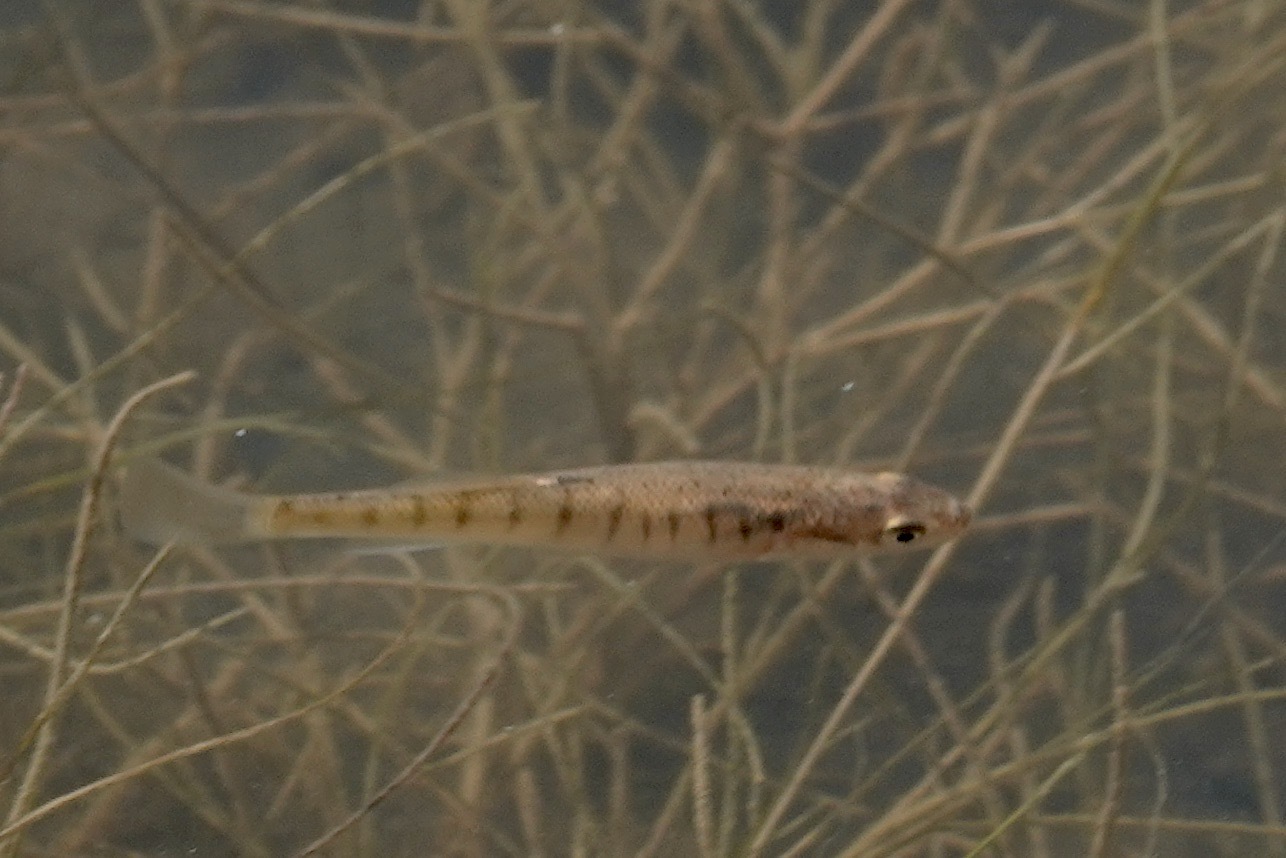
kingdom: Animalia
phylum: Chordata
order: Cyprinodontiformes
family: Fundulidae
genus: Fundulus
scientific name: Fundulus kansae
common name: Northern plains killifish
